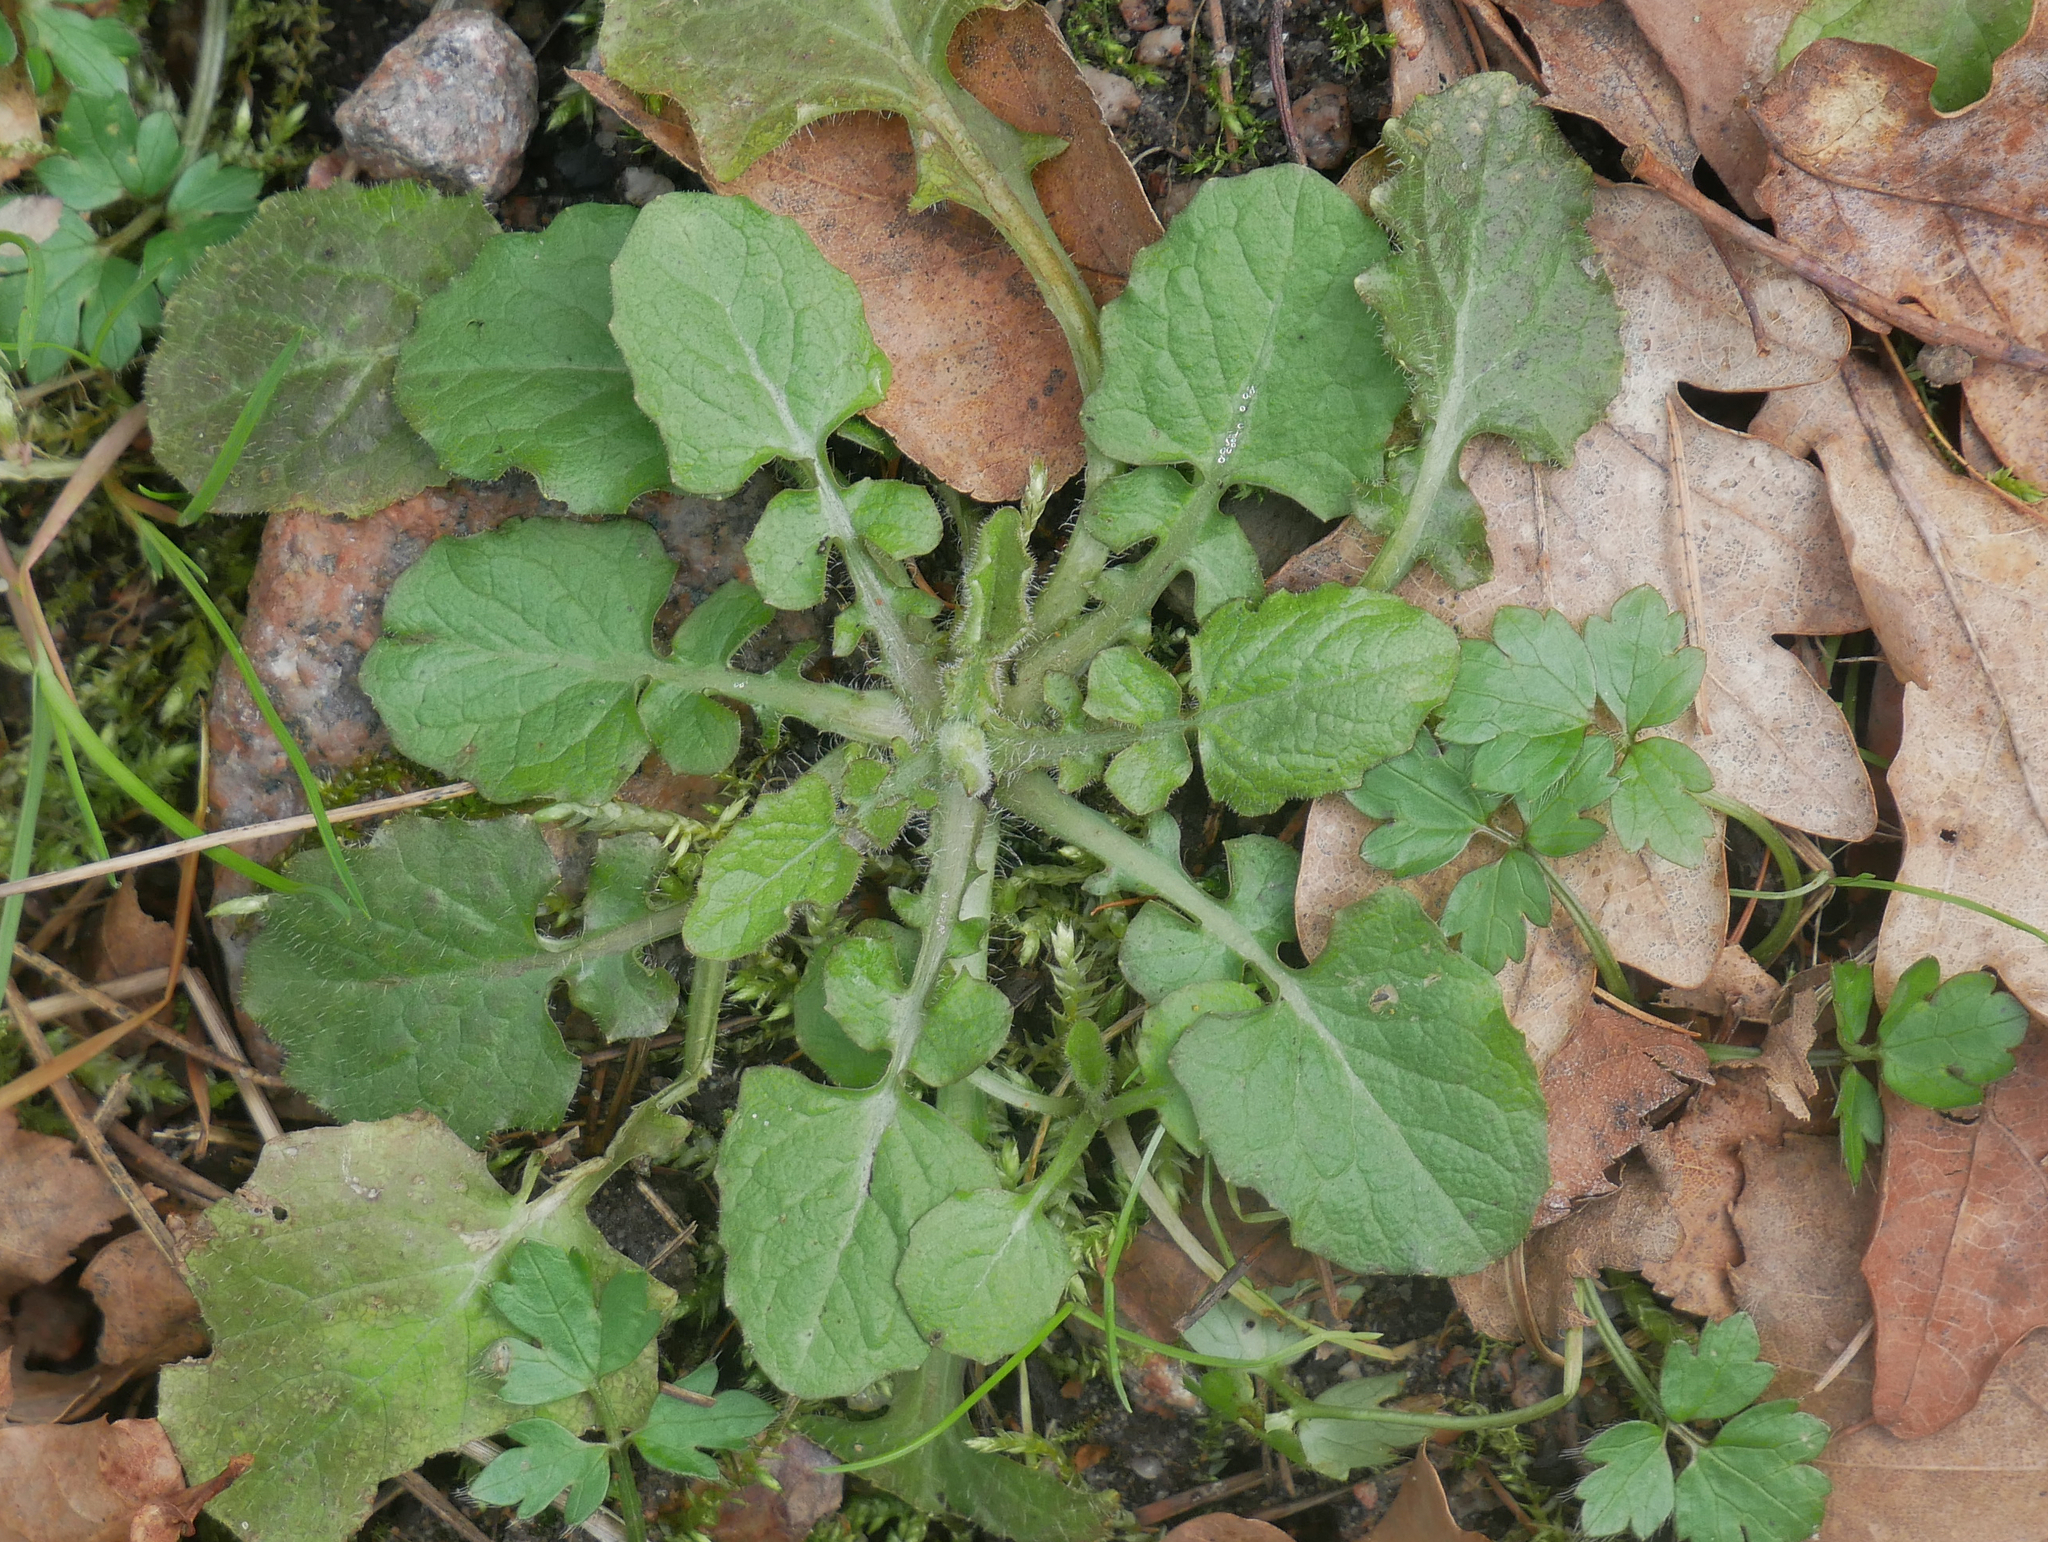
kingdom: Plantae
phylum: Tracheophyta
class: Magnoliopsida
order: Asterales
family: Asteraceae
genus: Lapsana
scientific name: Lapsana communis
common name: Nipplewort
